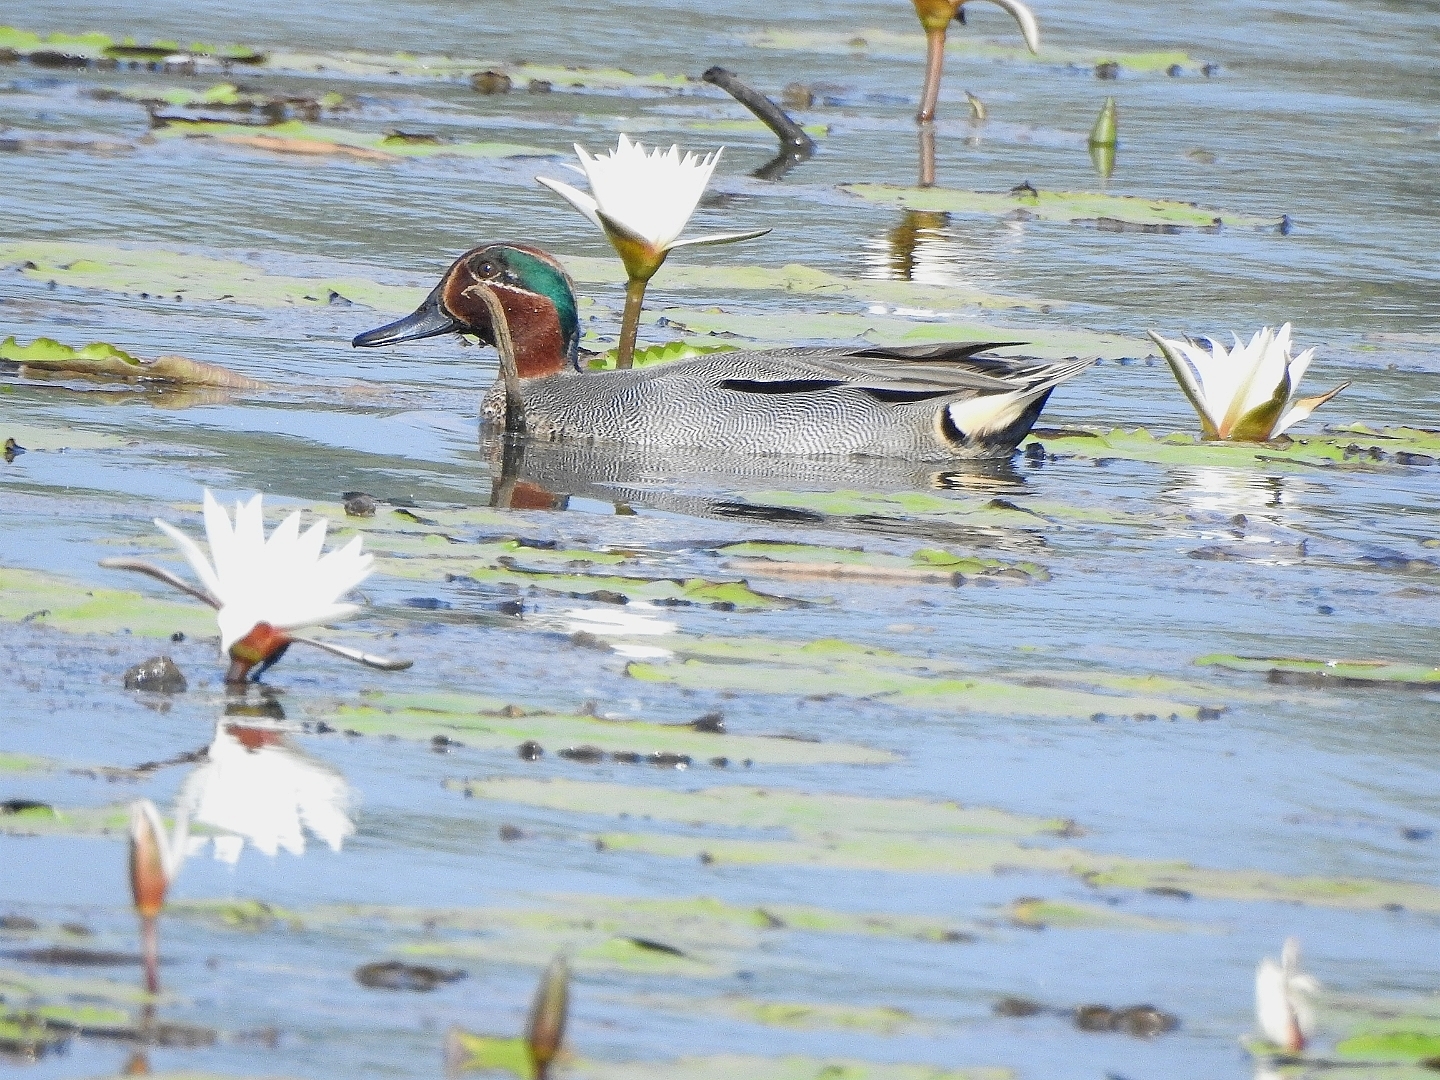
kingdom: Animalia
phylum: Chordata
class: Aves
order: Anseriformes
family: Anatidae
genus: Anas
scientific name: Anas crecca
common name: Eurasian teal
